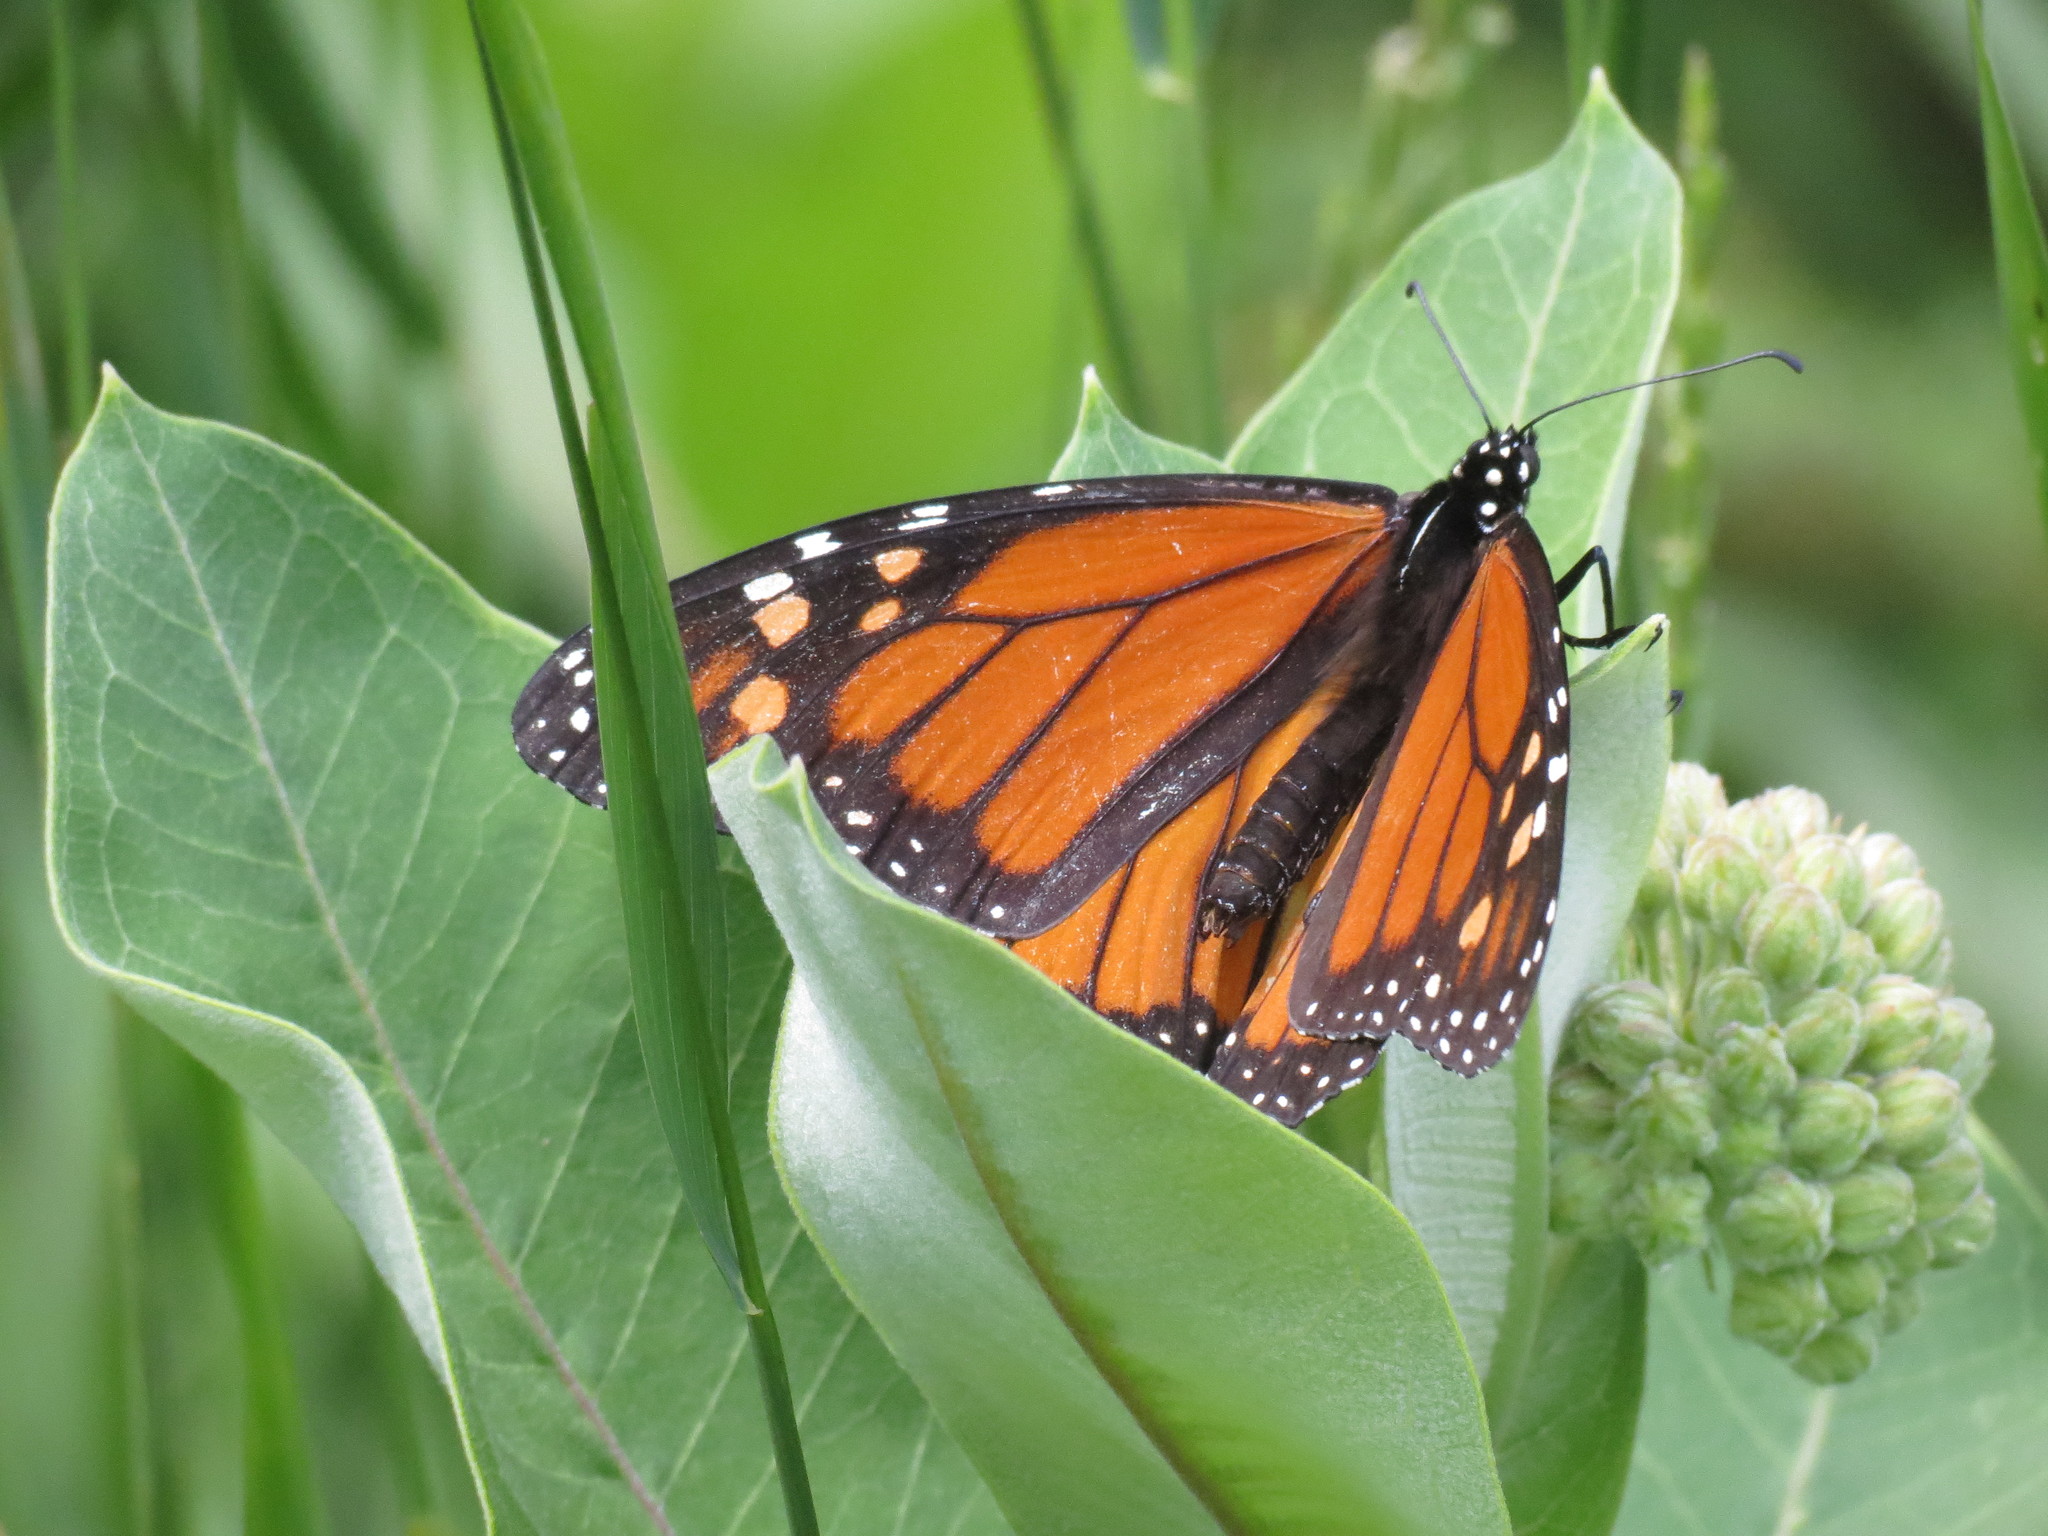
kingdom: Animalia
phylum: Arthropoda
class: Insecta
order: Lepidoptera
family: Nymphalidae
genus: Danaus
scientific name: Danaus plexippus
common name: Monarch
